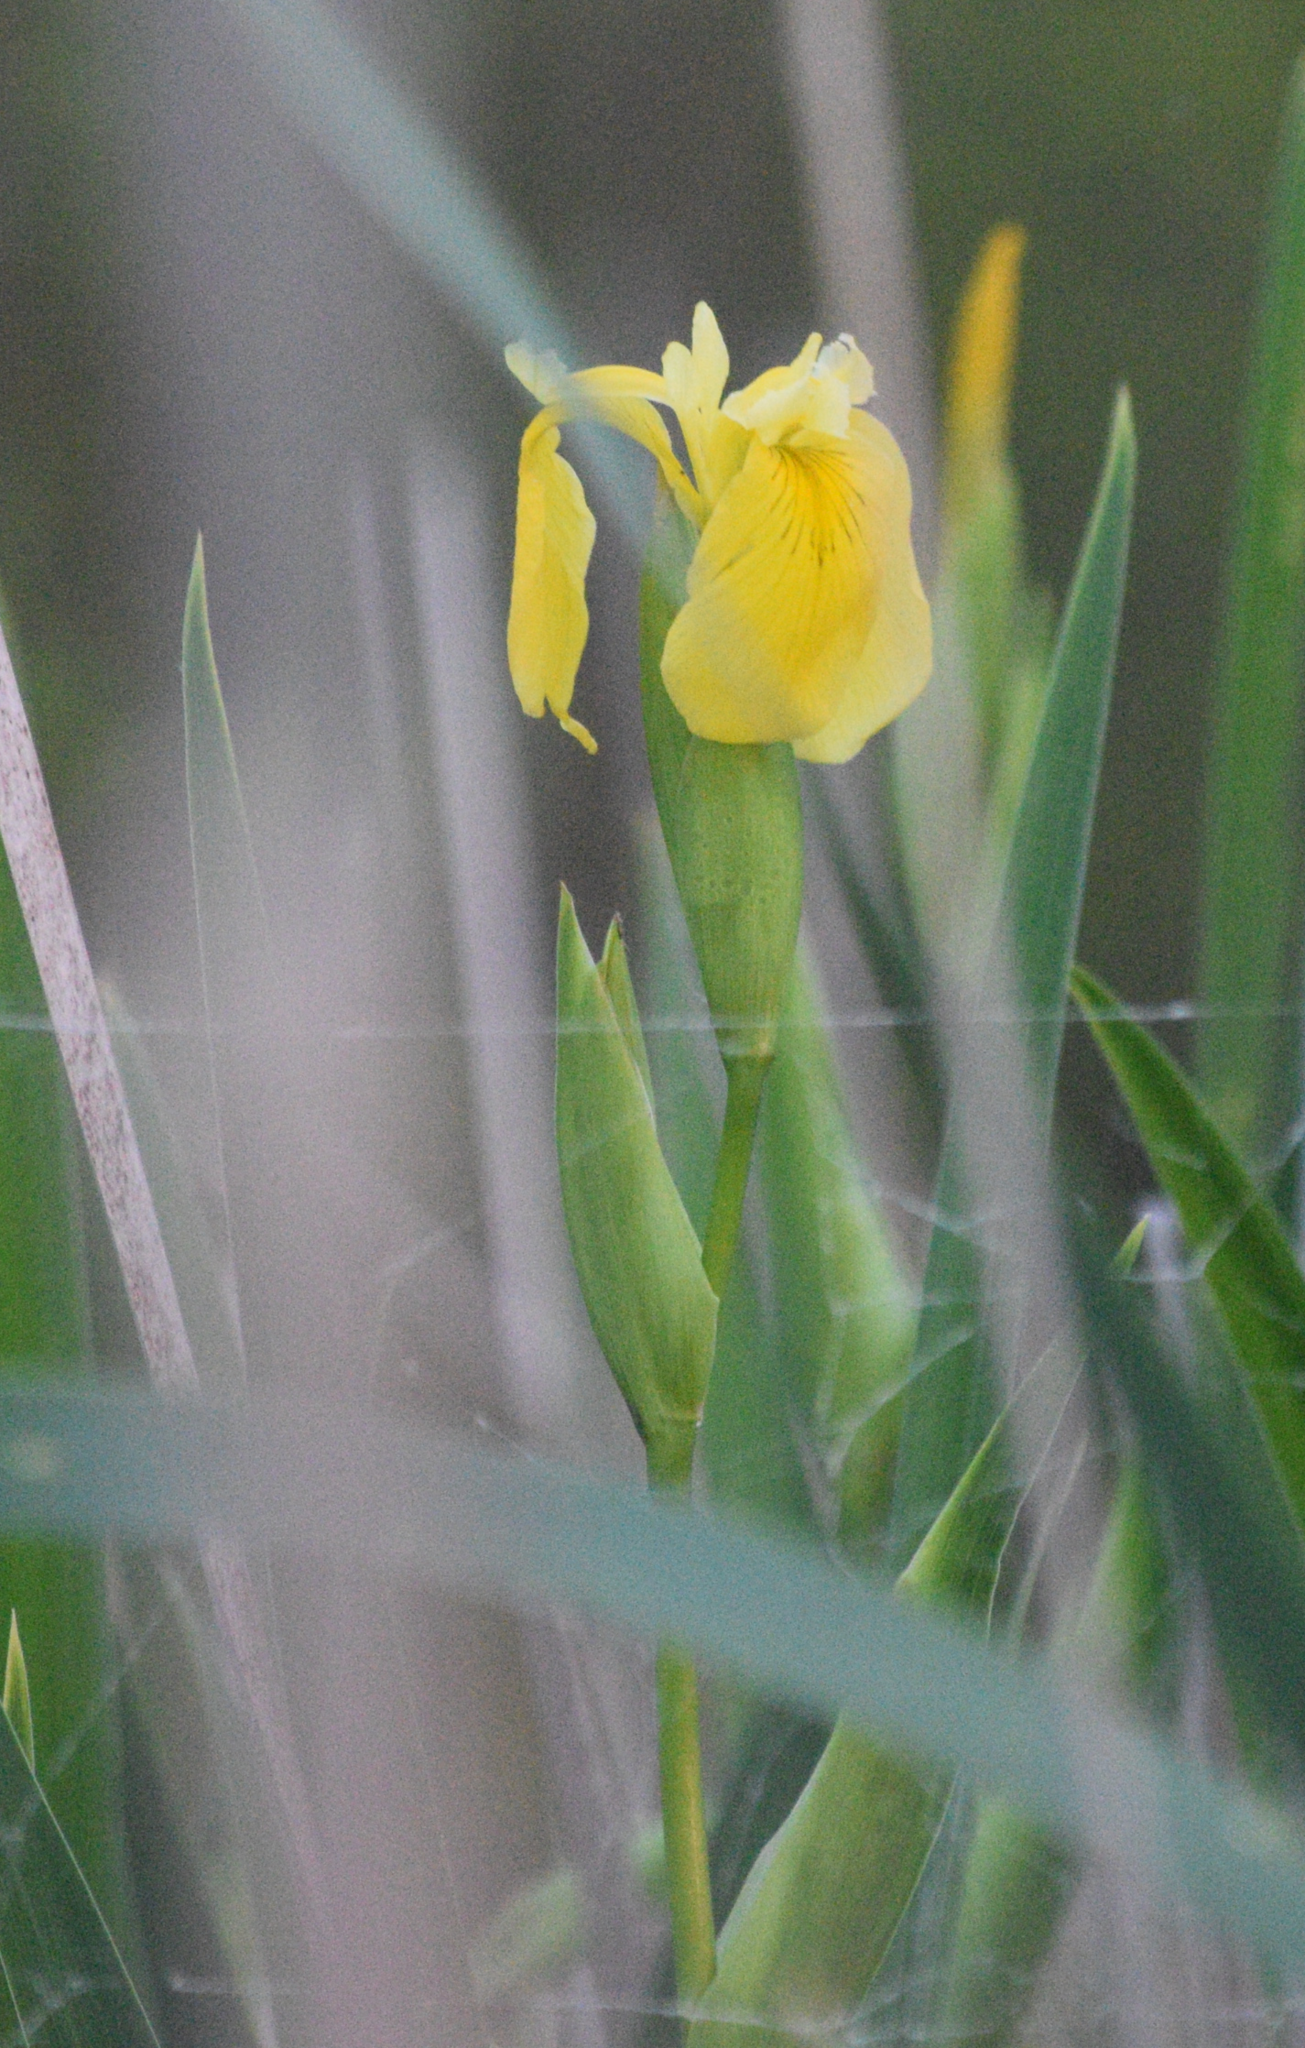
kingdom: Plantae
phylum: Tracheophyta
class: Liliopsida
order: Asparagales
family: Iridaceae
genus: Iris
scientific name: Iris pseudacorus
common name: Yellow flag
